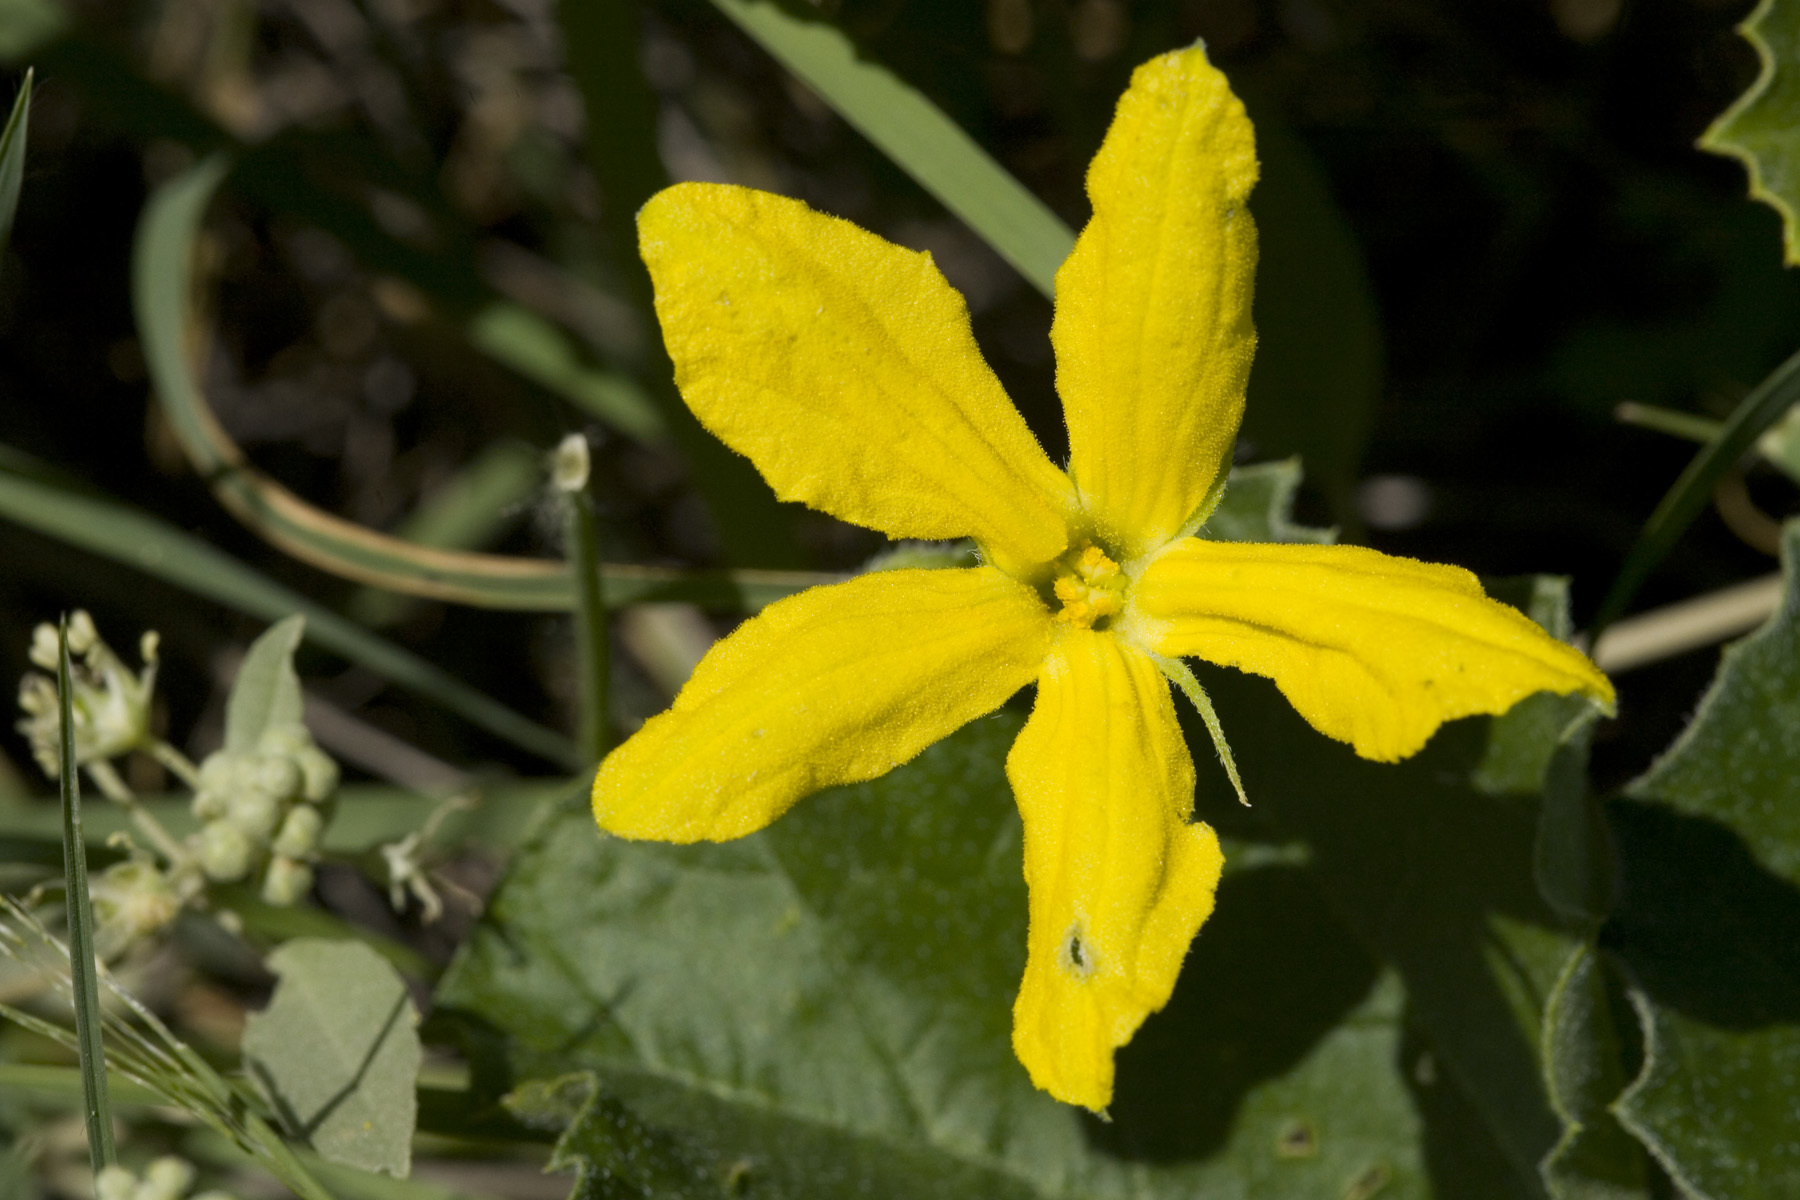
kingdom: Plantae
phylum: Tracheophyta
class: Magnoliopsida
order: Cucurbitales
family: Cucurbitaceae
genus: Apodanthera
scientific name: Apodanthera undulata
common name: Melon-loco
